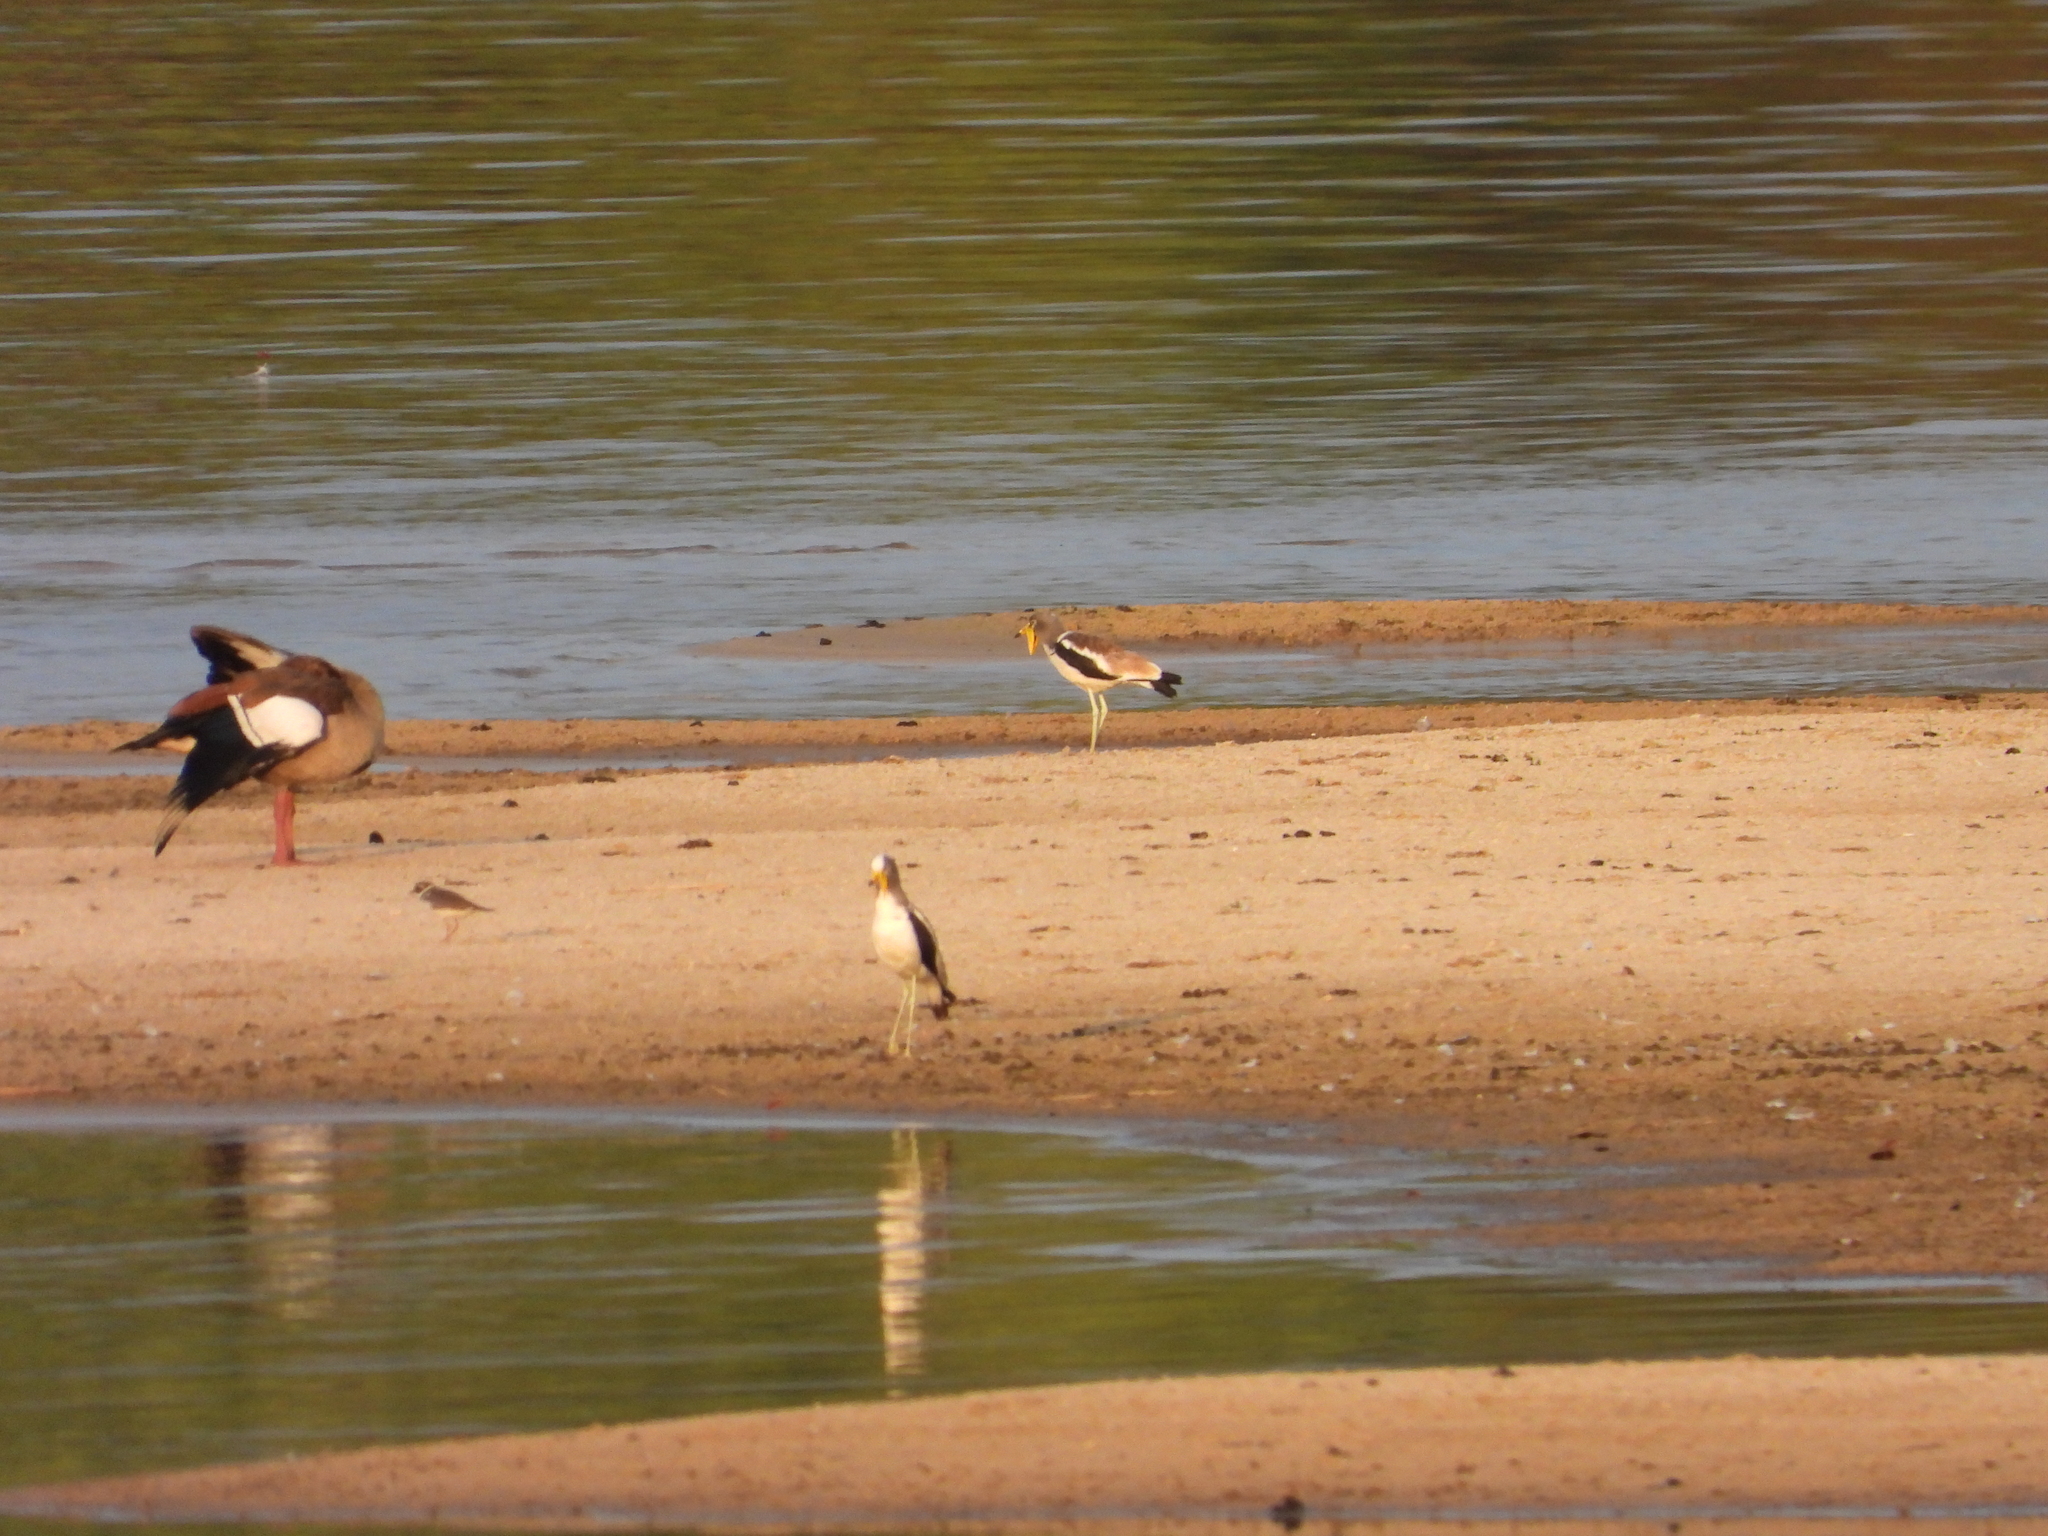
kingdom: Animalia
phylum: Chordata
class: Aves
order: Charadriiformes
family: Charadriidae
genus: Vanellus
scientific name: Vanellus albiceps
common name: White-crowned lapwing
